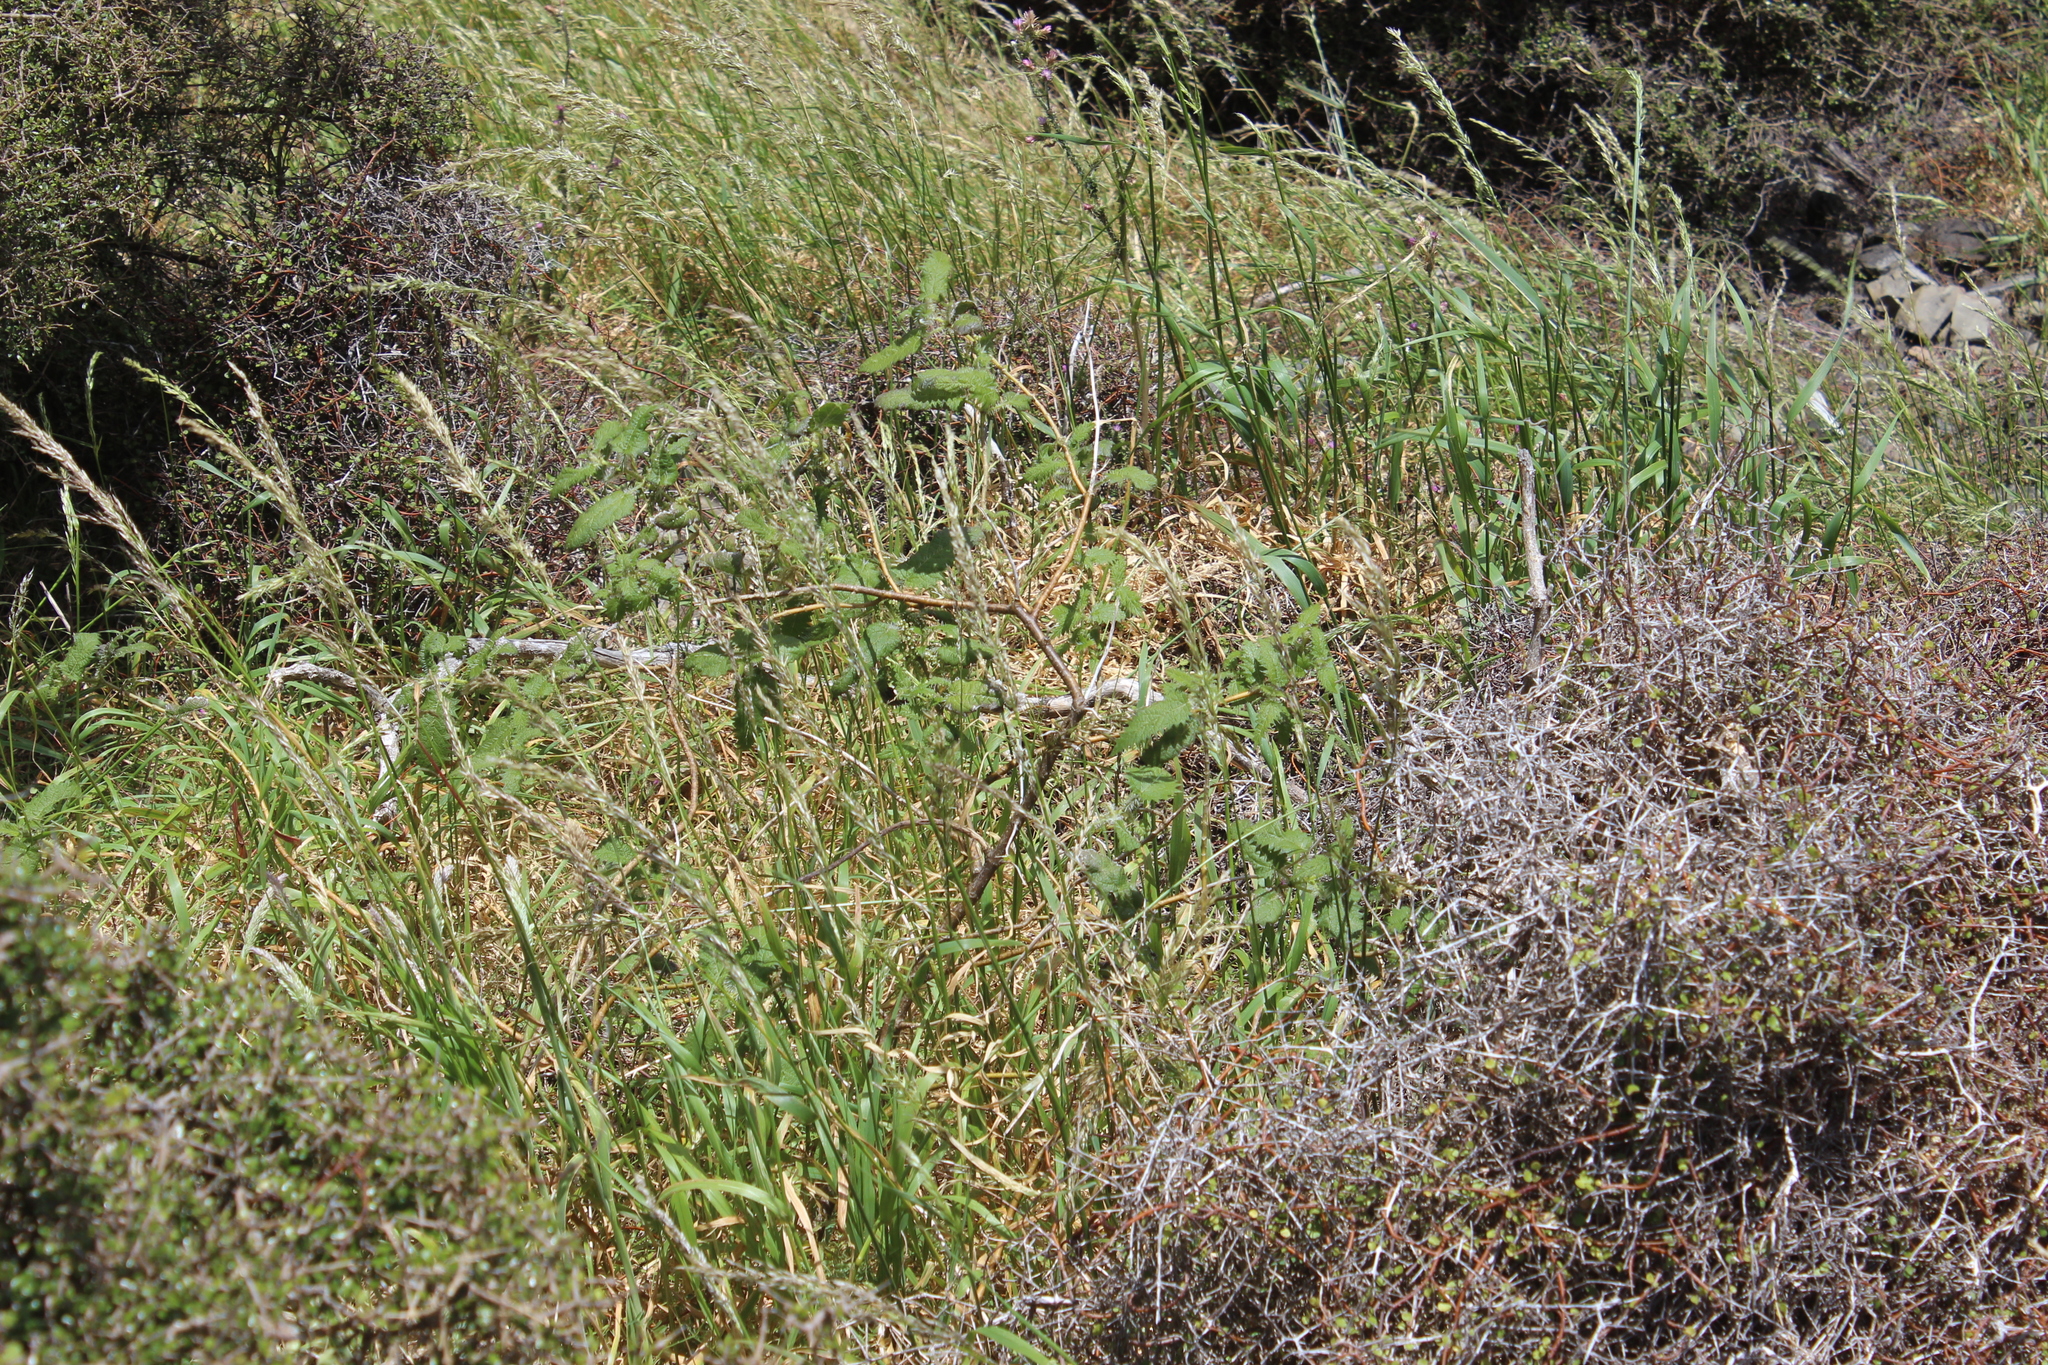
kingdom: Plantae
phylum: Tracheophyta
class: Magnoliopsida
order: Rosales
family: Urticaceae
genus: Urtica
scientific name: Urtica ferox
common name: Tree nettle
